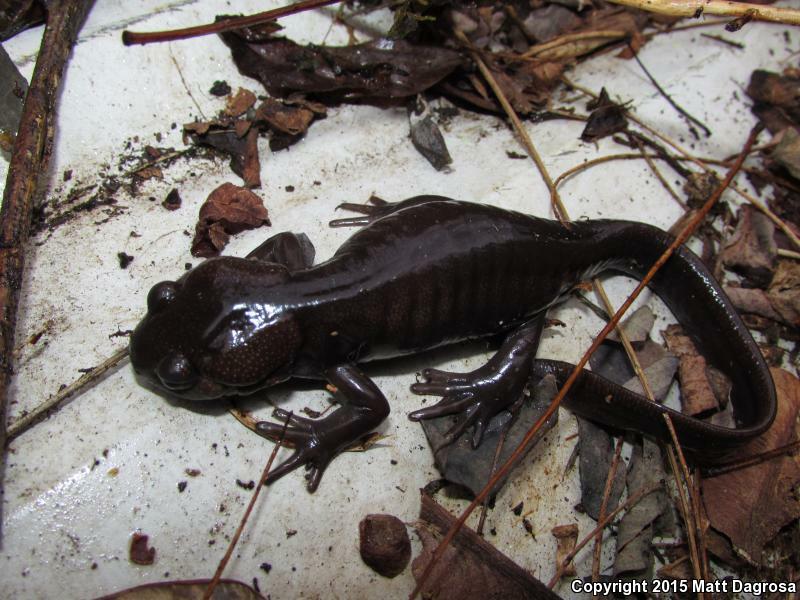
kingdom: Animalia
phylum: Chordata
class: Amphibia
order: Caudata
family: Ambystomatidae
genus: Ambystoma
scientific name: Ambystoma gracile
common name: Northwestern salamander
